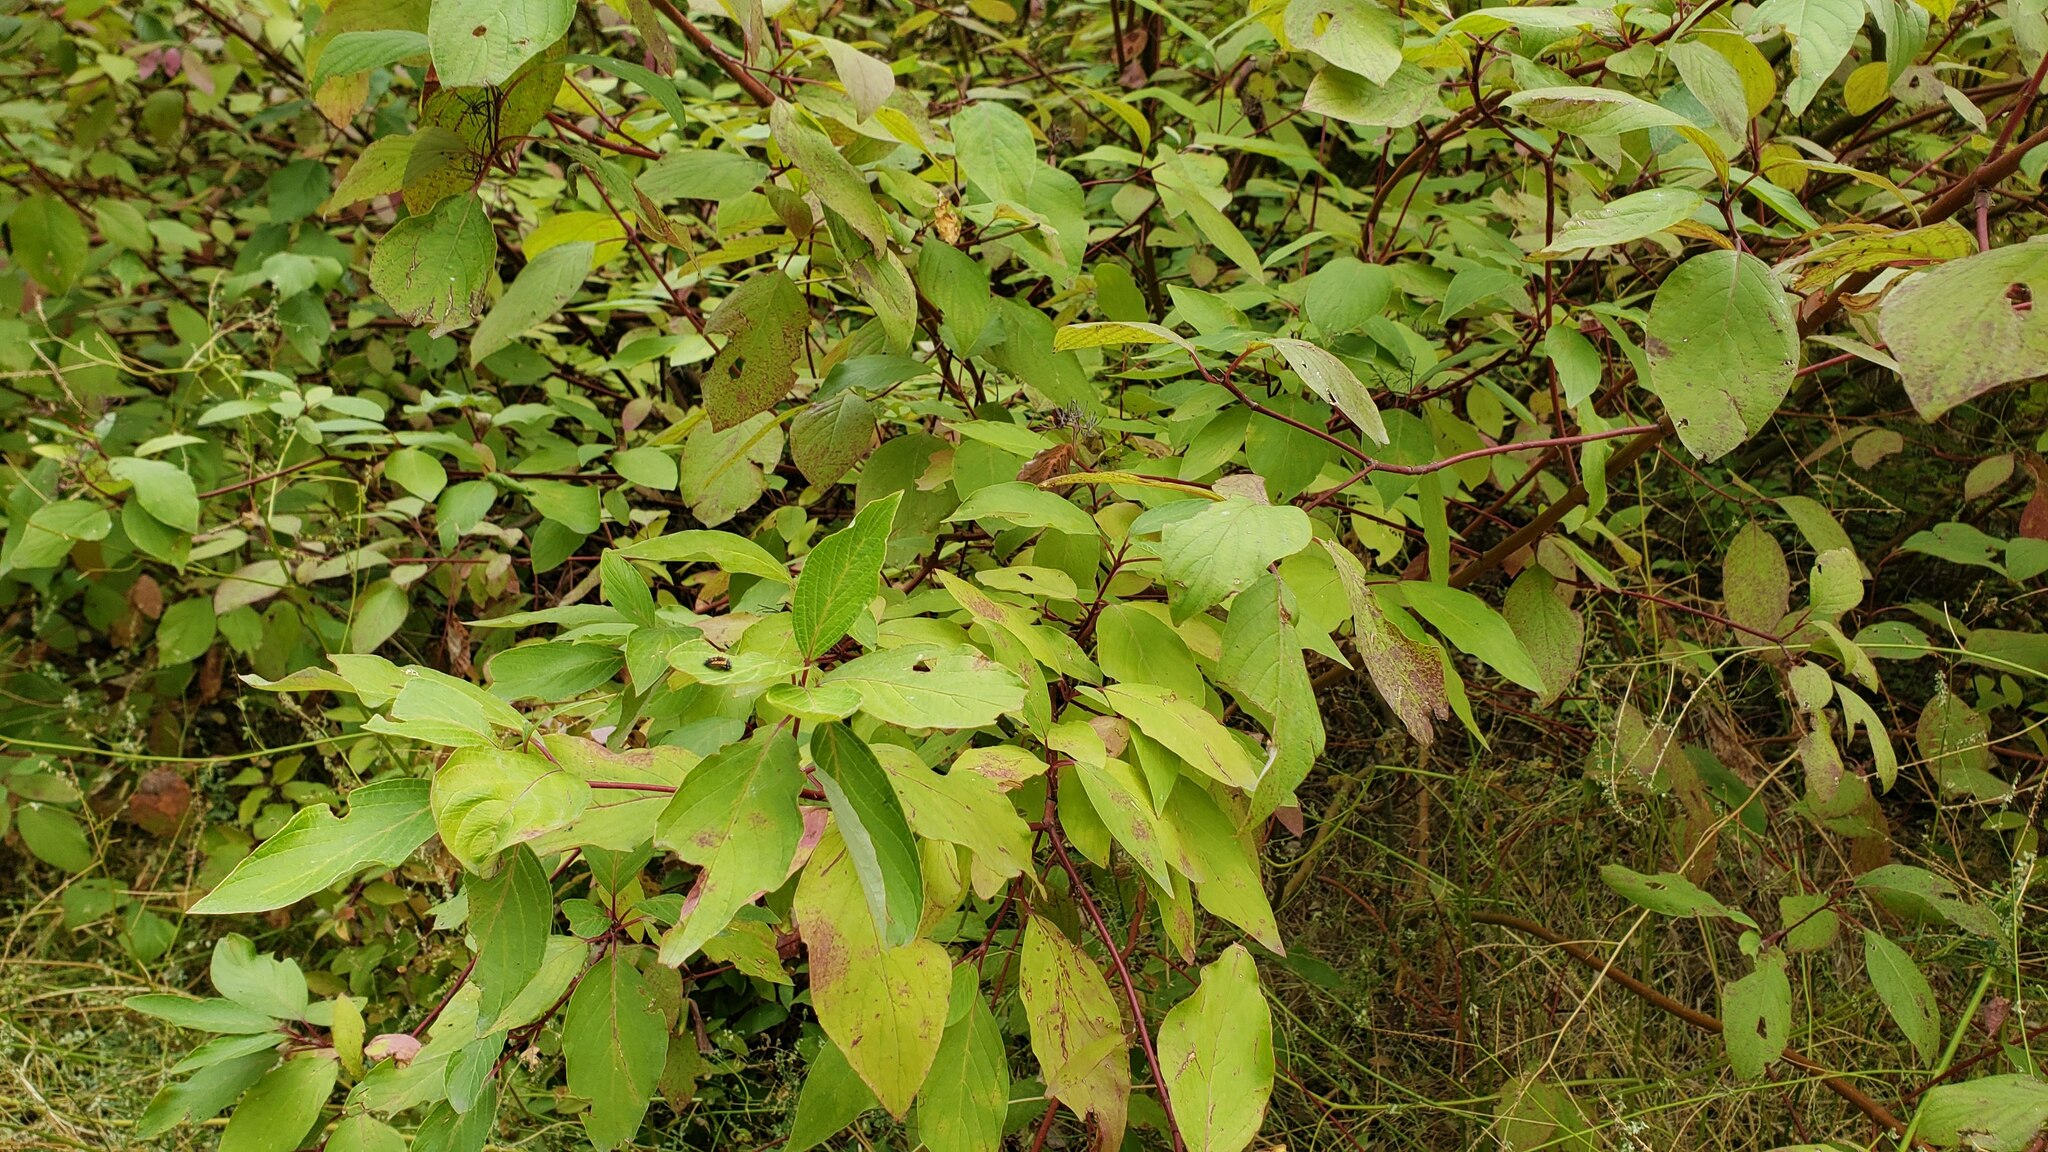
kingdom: Plantae
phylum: Tracheophyta
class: Magnoliopsida
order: Cornales
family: Cornaceae
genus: Cornus
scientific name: Cornus sericea
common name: Red-osier dogwood
